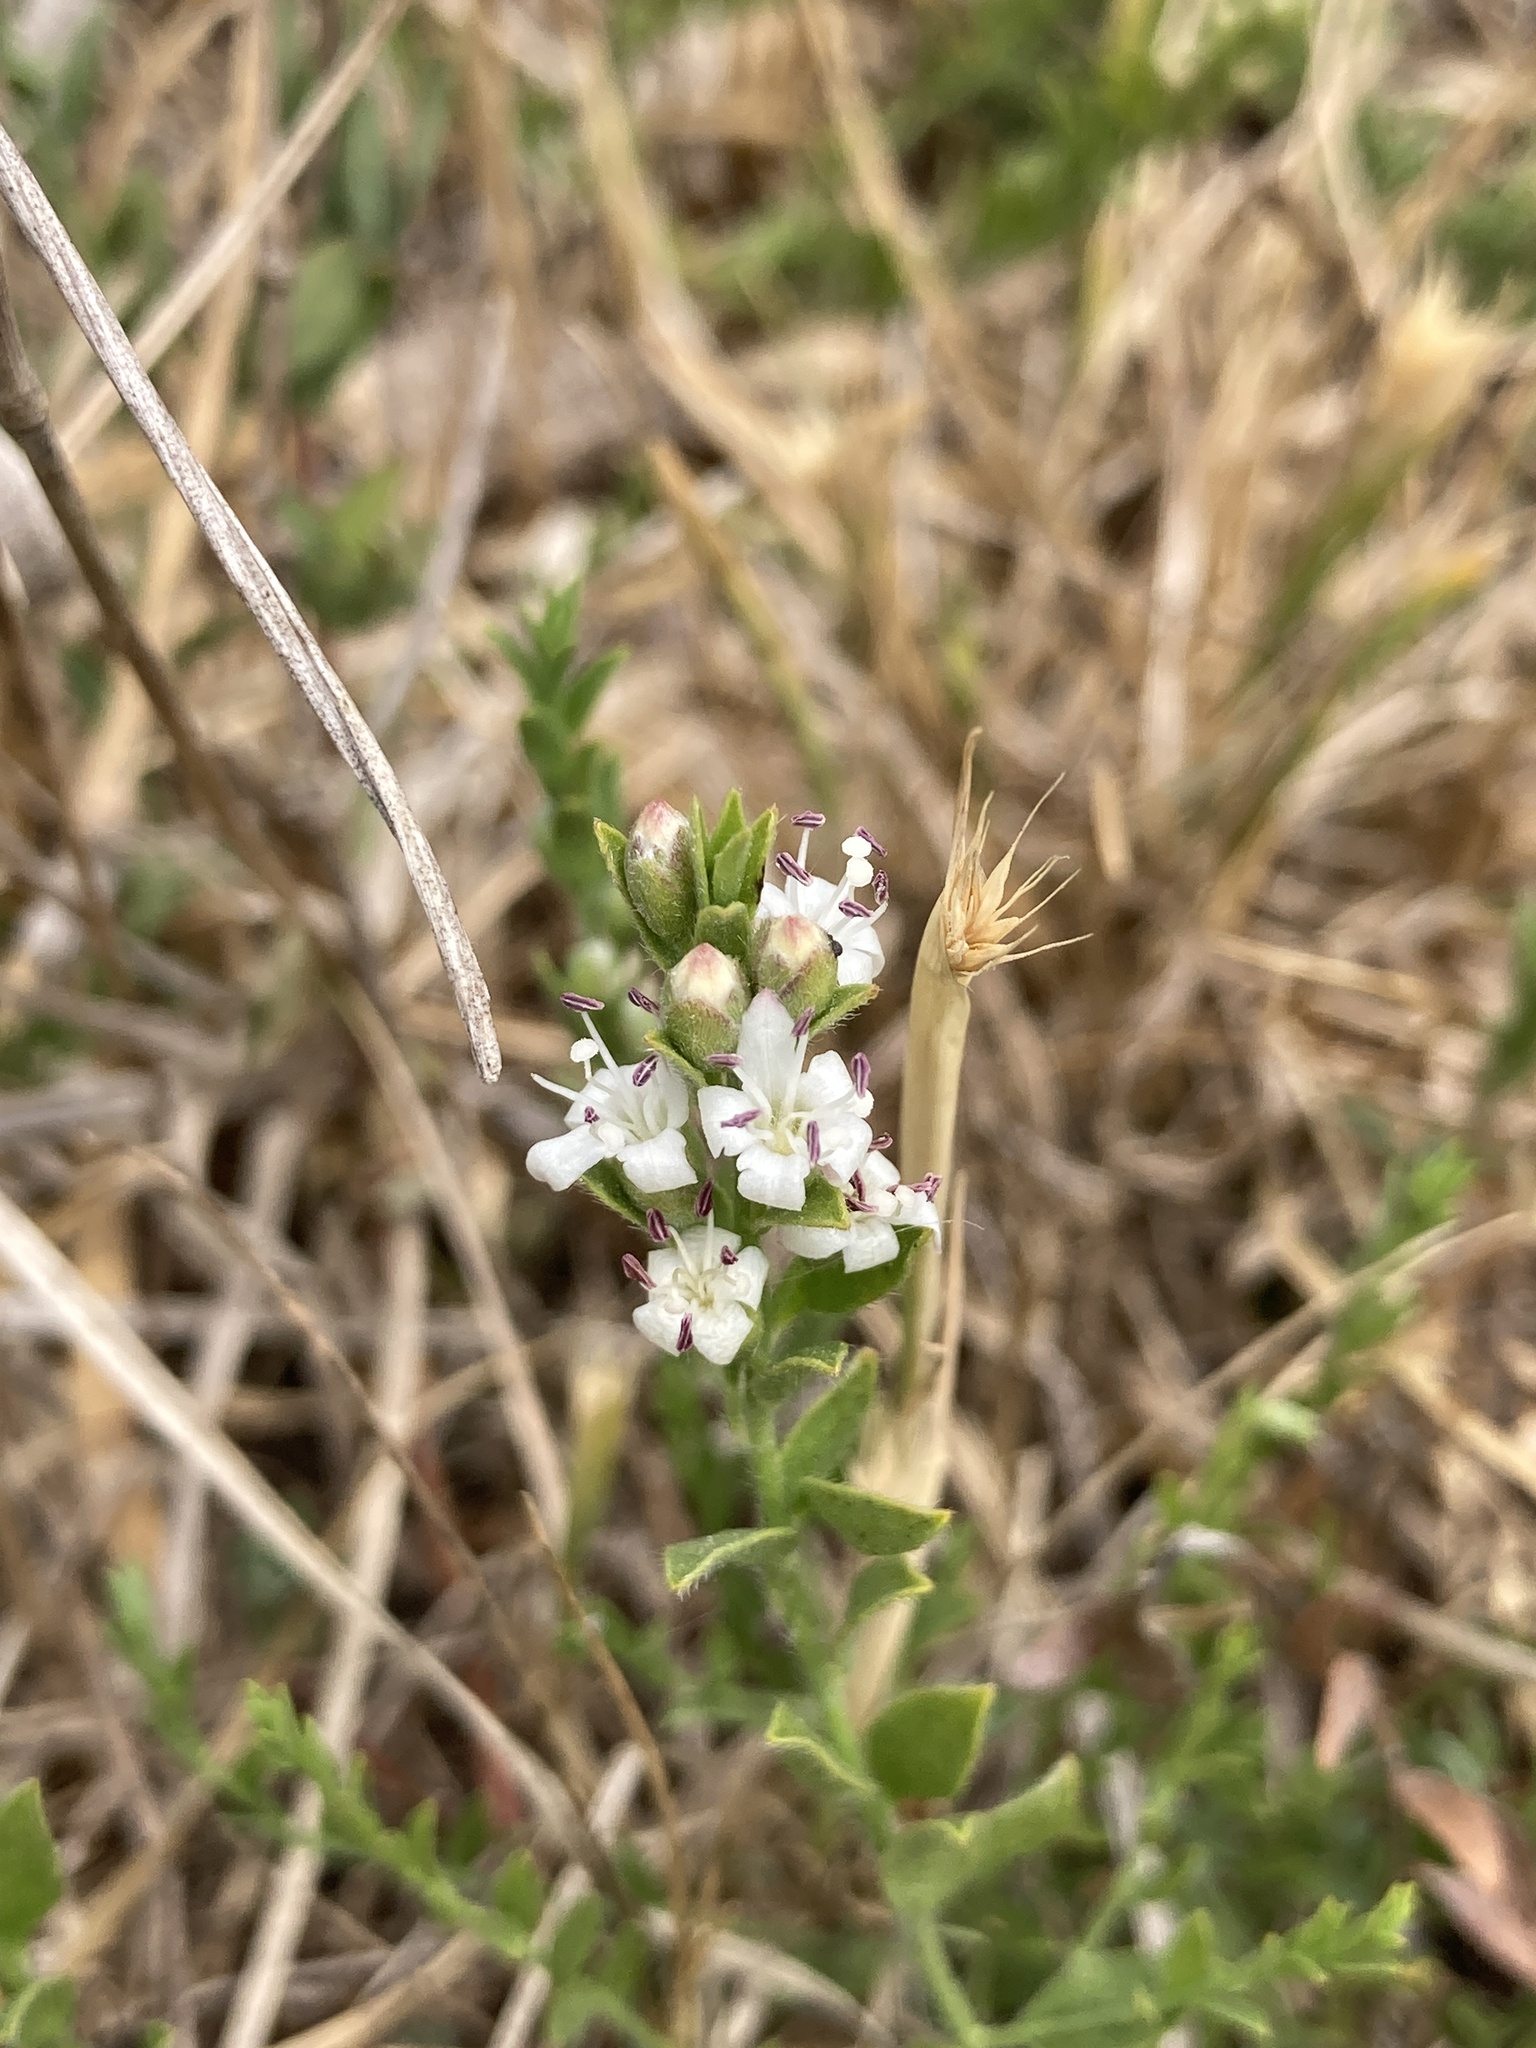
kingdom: Plantae
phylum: Tracheophyta
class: Magnoliopsida
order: Solanales
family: Convolvulaceae
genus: Cressa
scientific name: Cressa truxillensis
